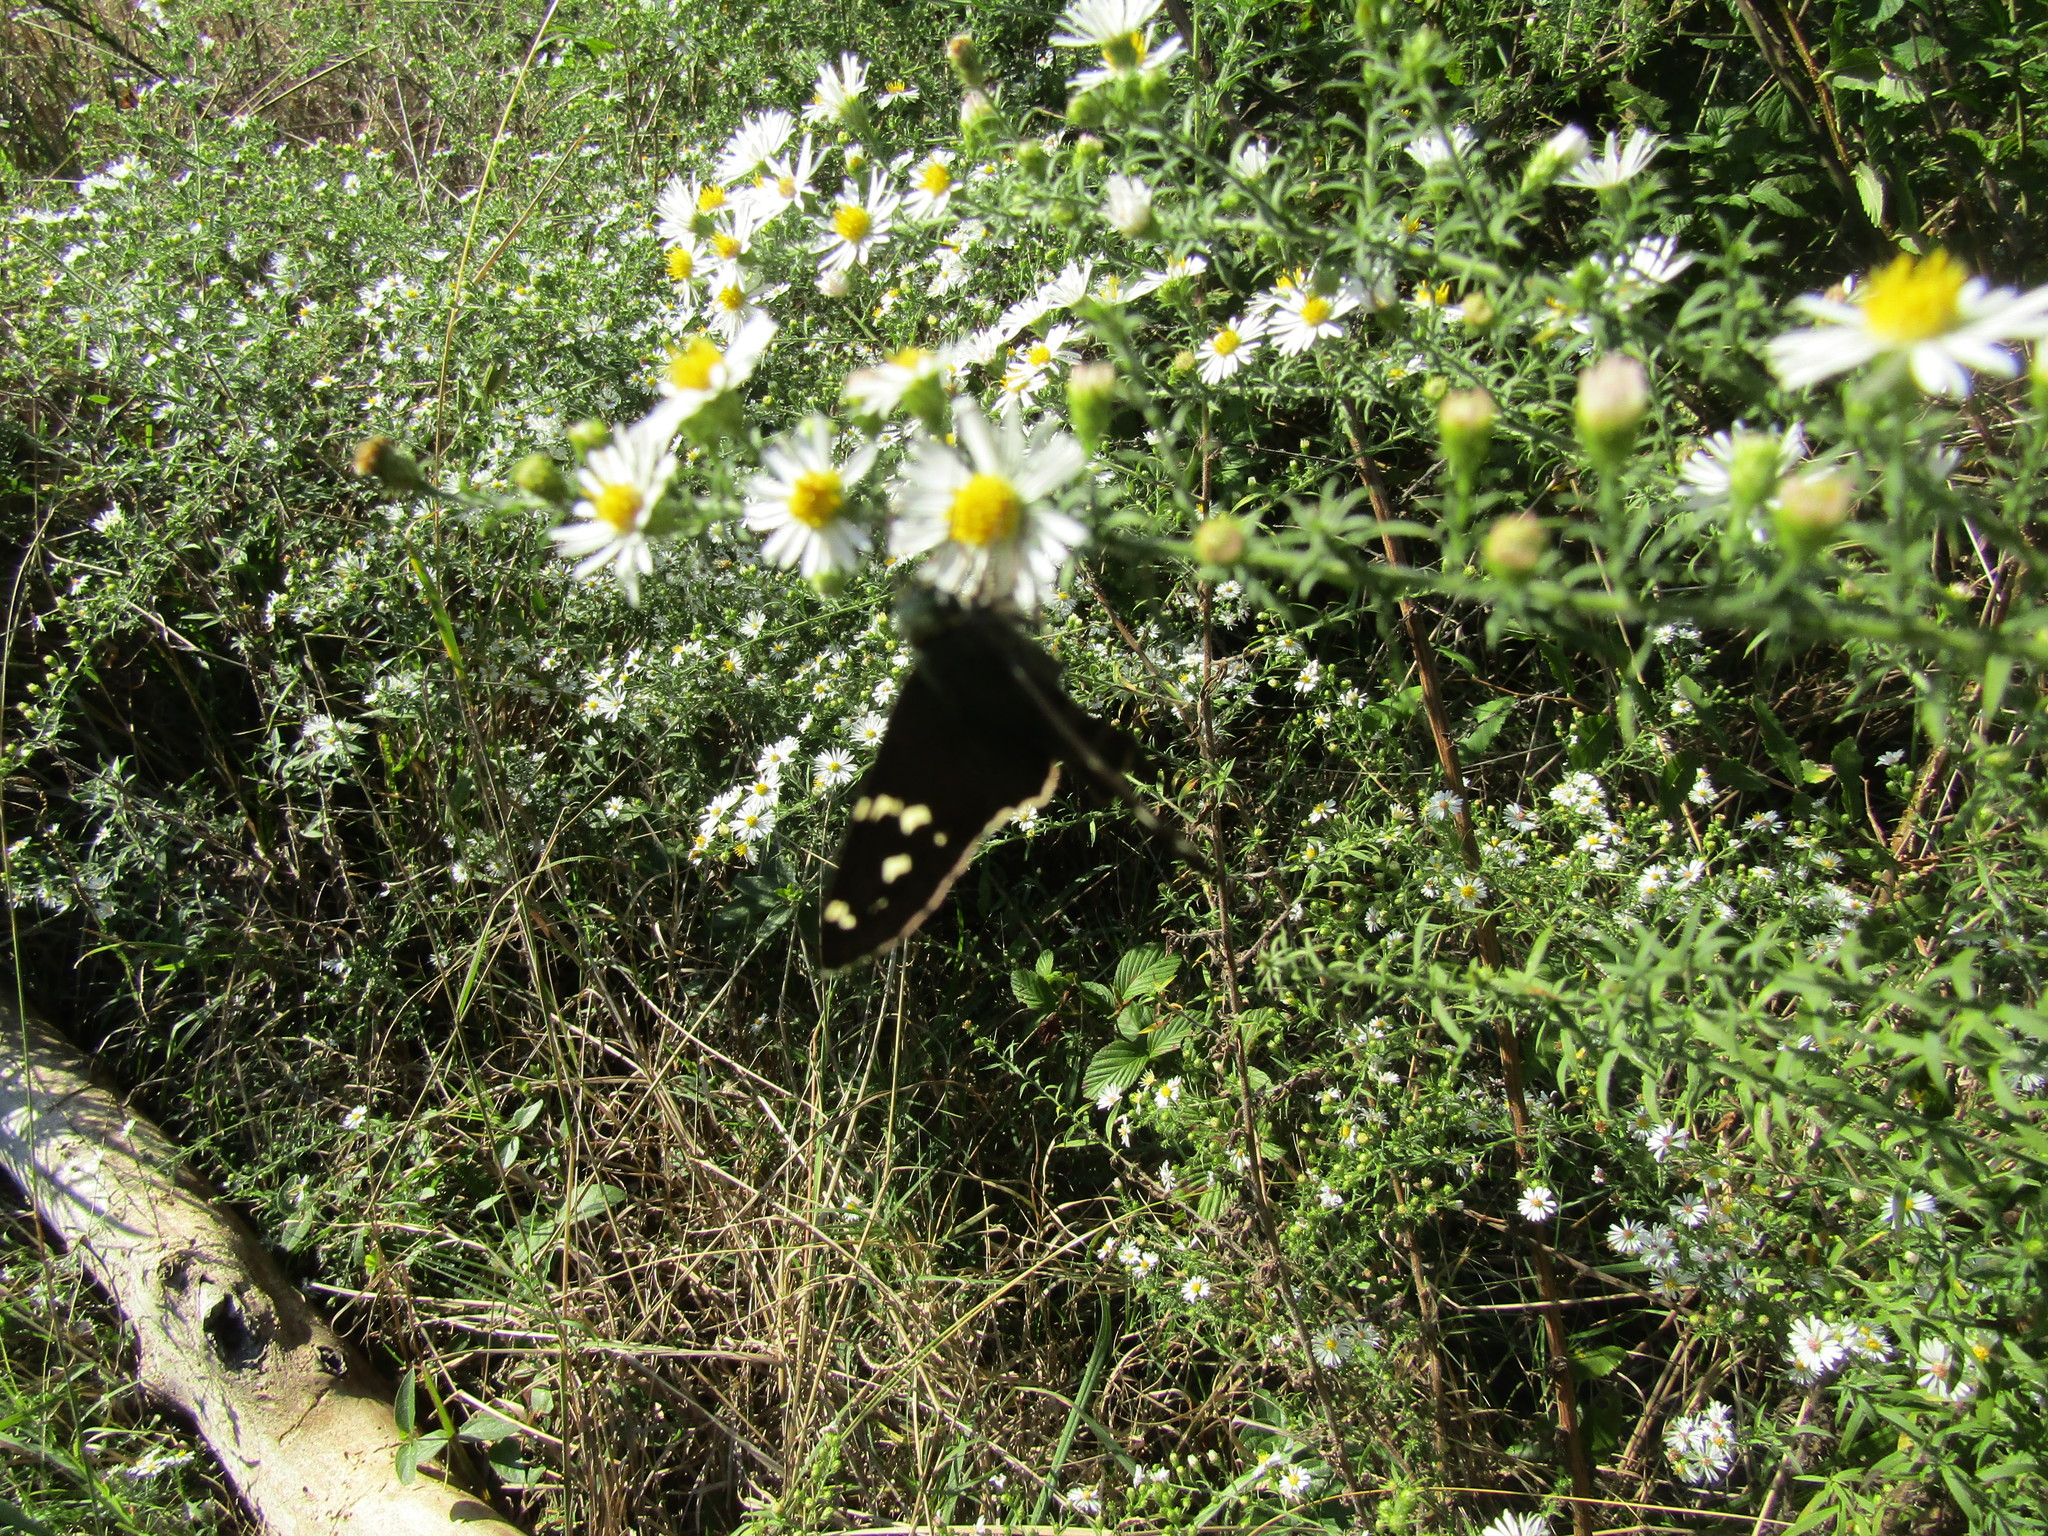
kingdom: Animalia
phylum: Arthropoda
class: Insecta
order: Lepidoptera
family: Hesperiidae
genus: Urbanus
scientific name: Urbanus proteus
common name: Long-tailed skipper
